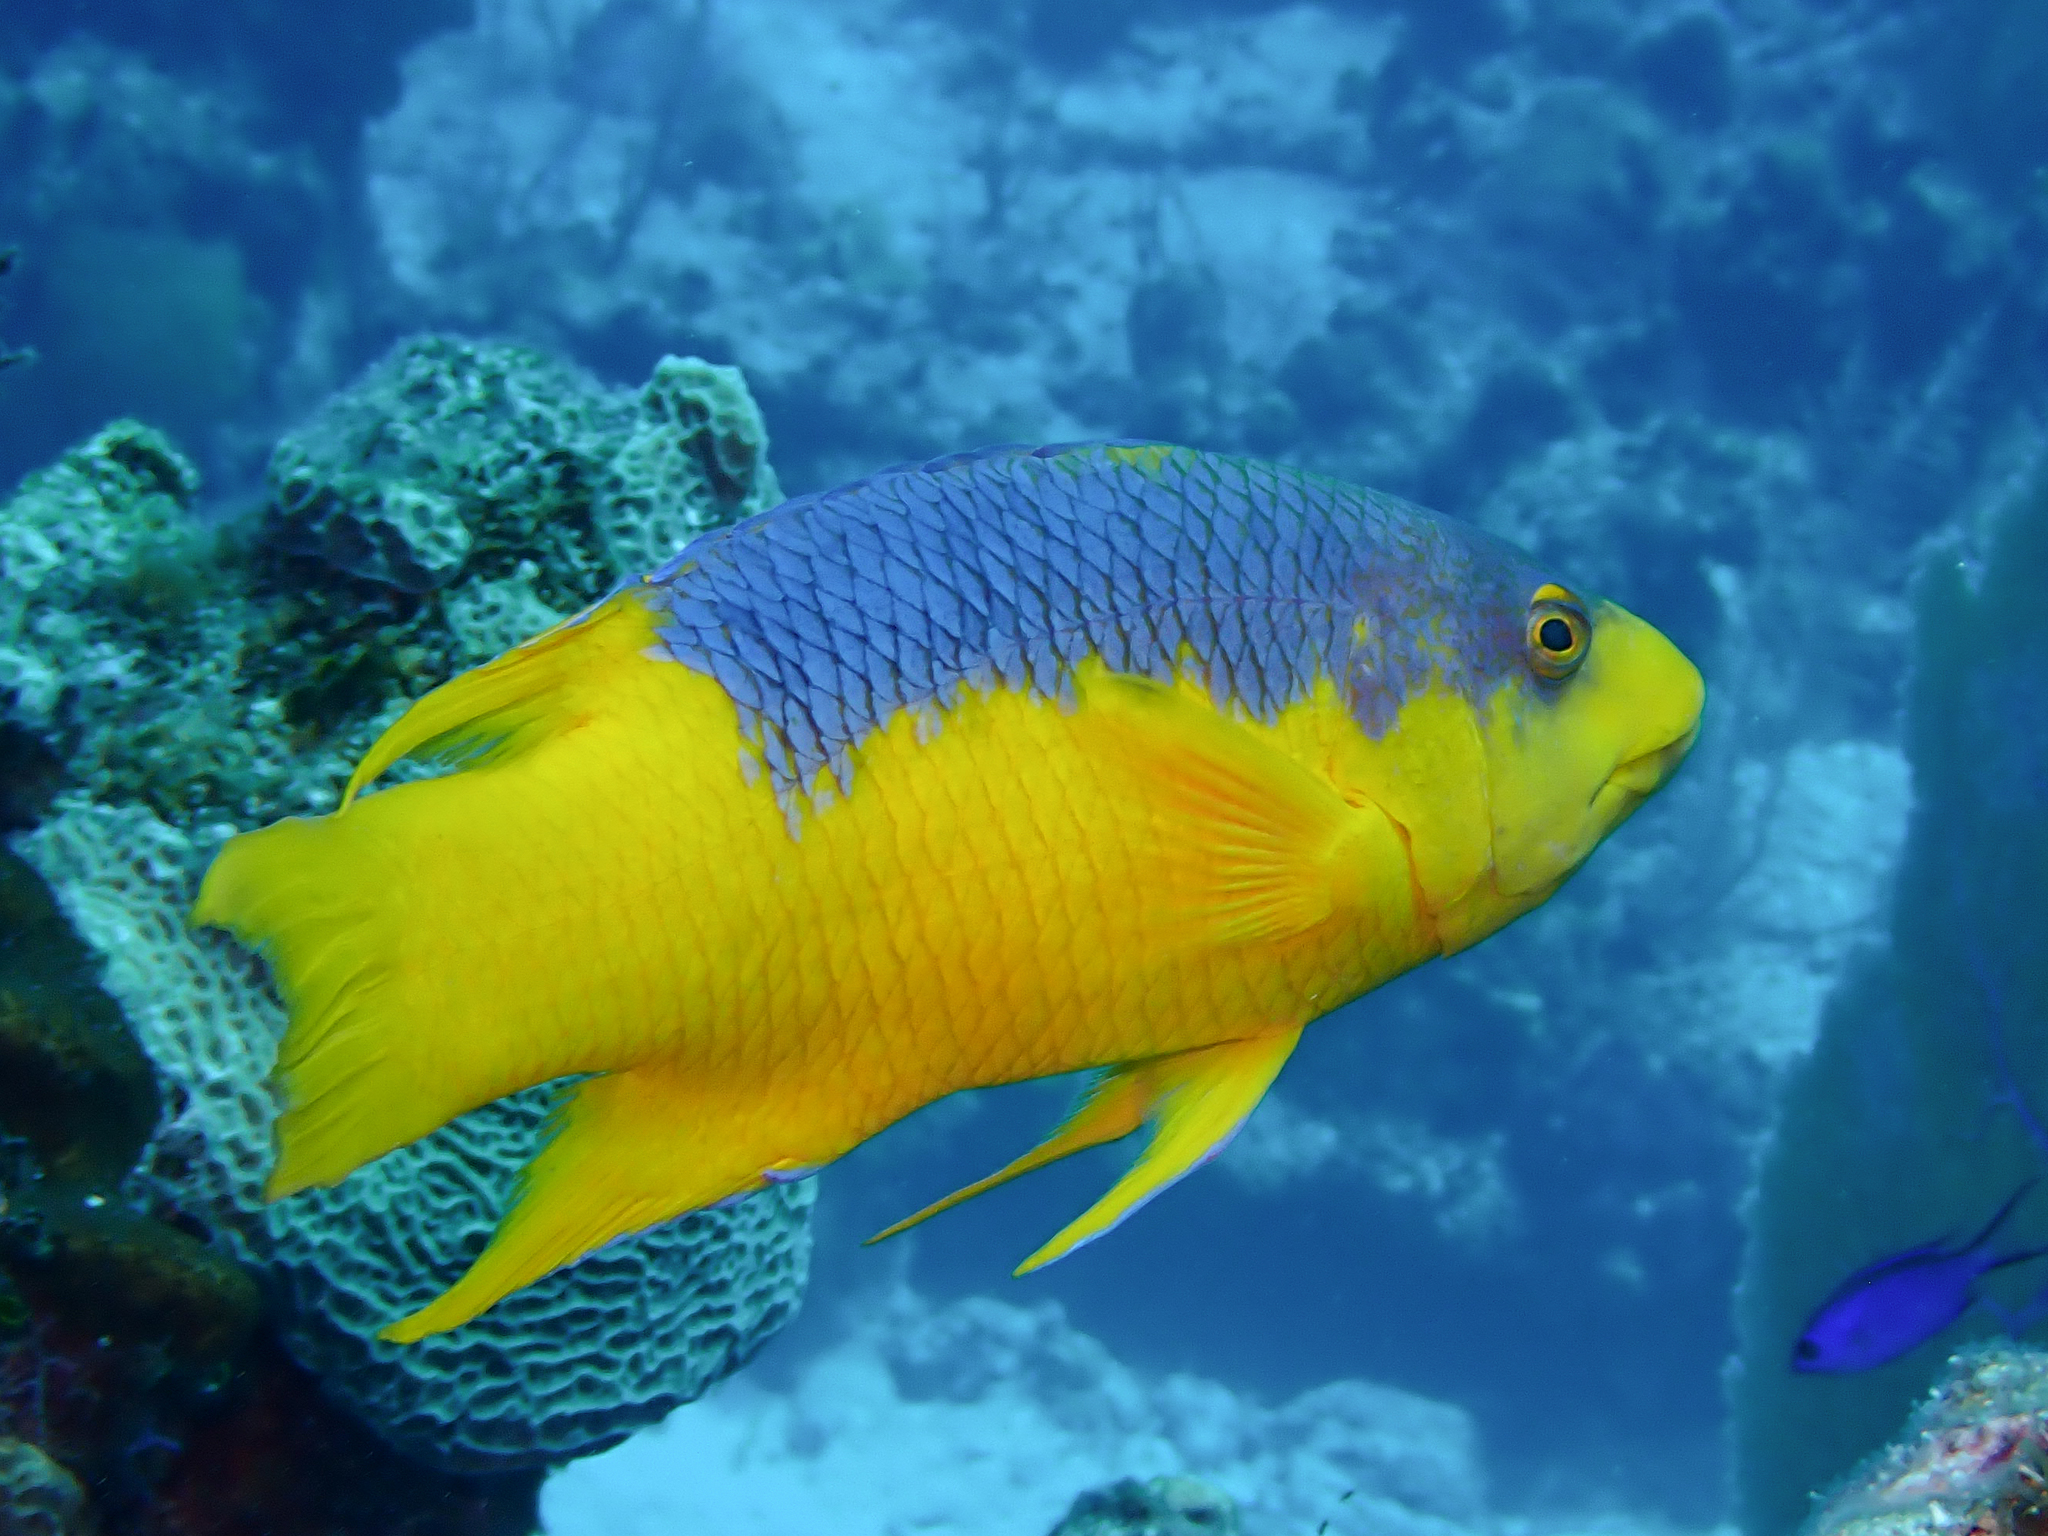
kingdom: Animalia
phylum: Chordata
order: Perciformes
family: Labridae
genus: Bodianus
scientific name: Bodianus rufus
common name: Spanish hogfish
